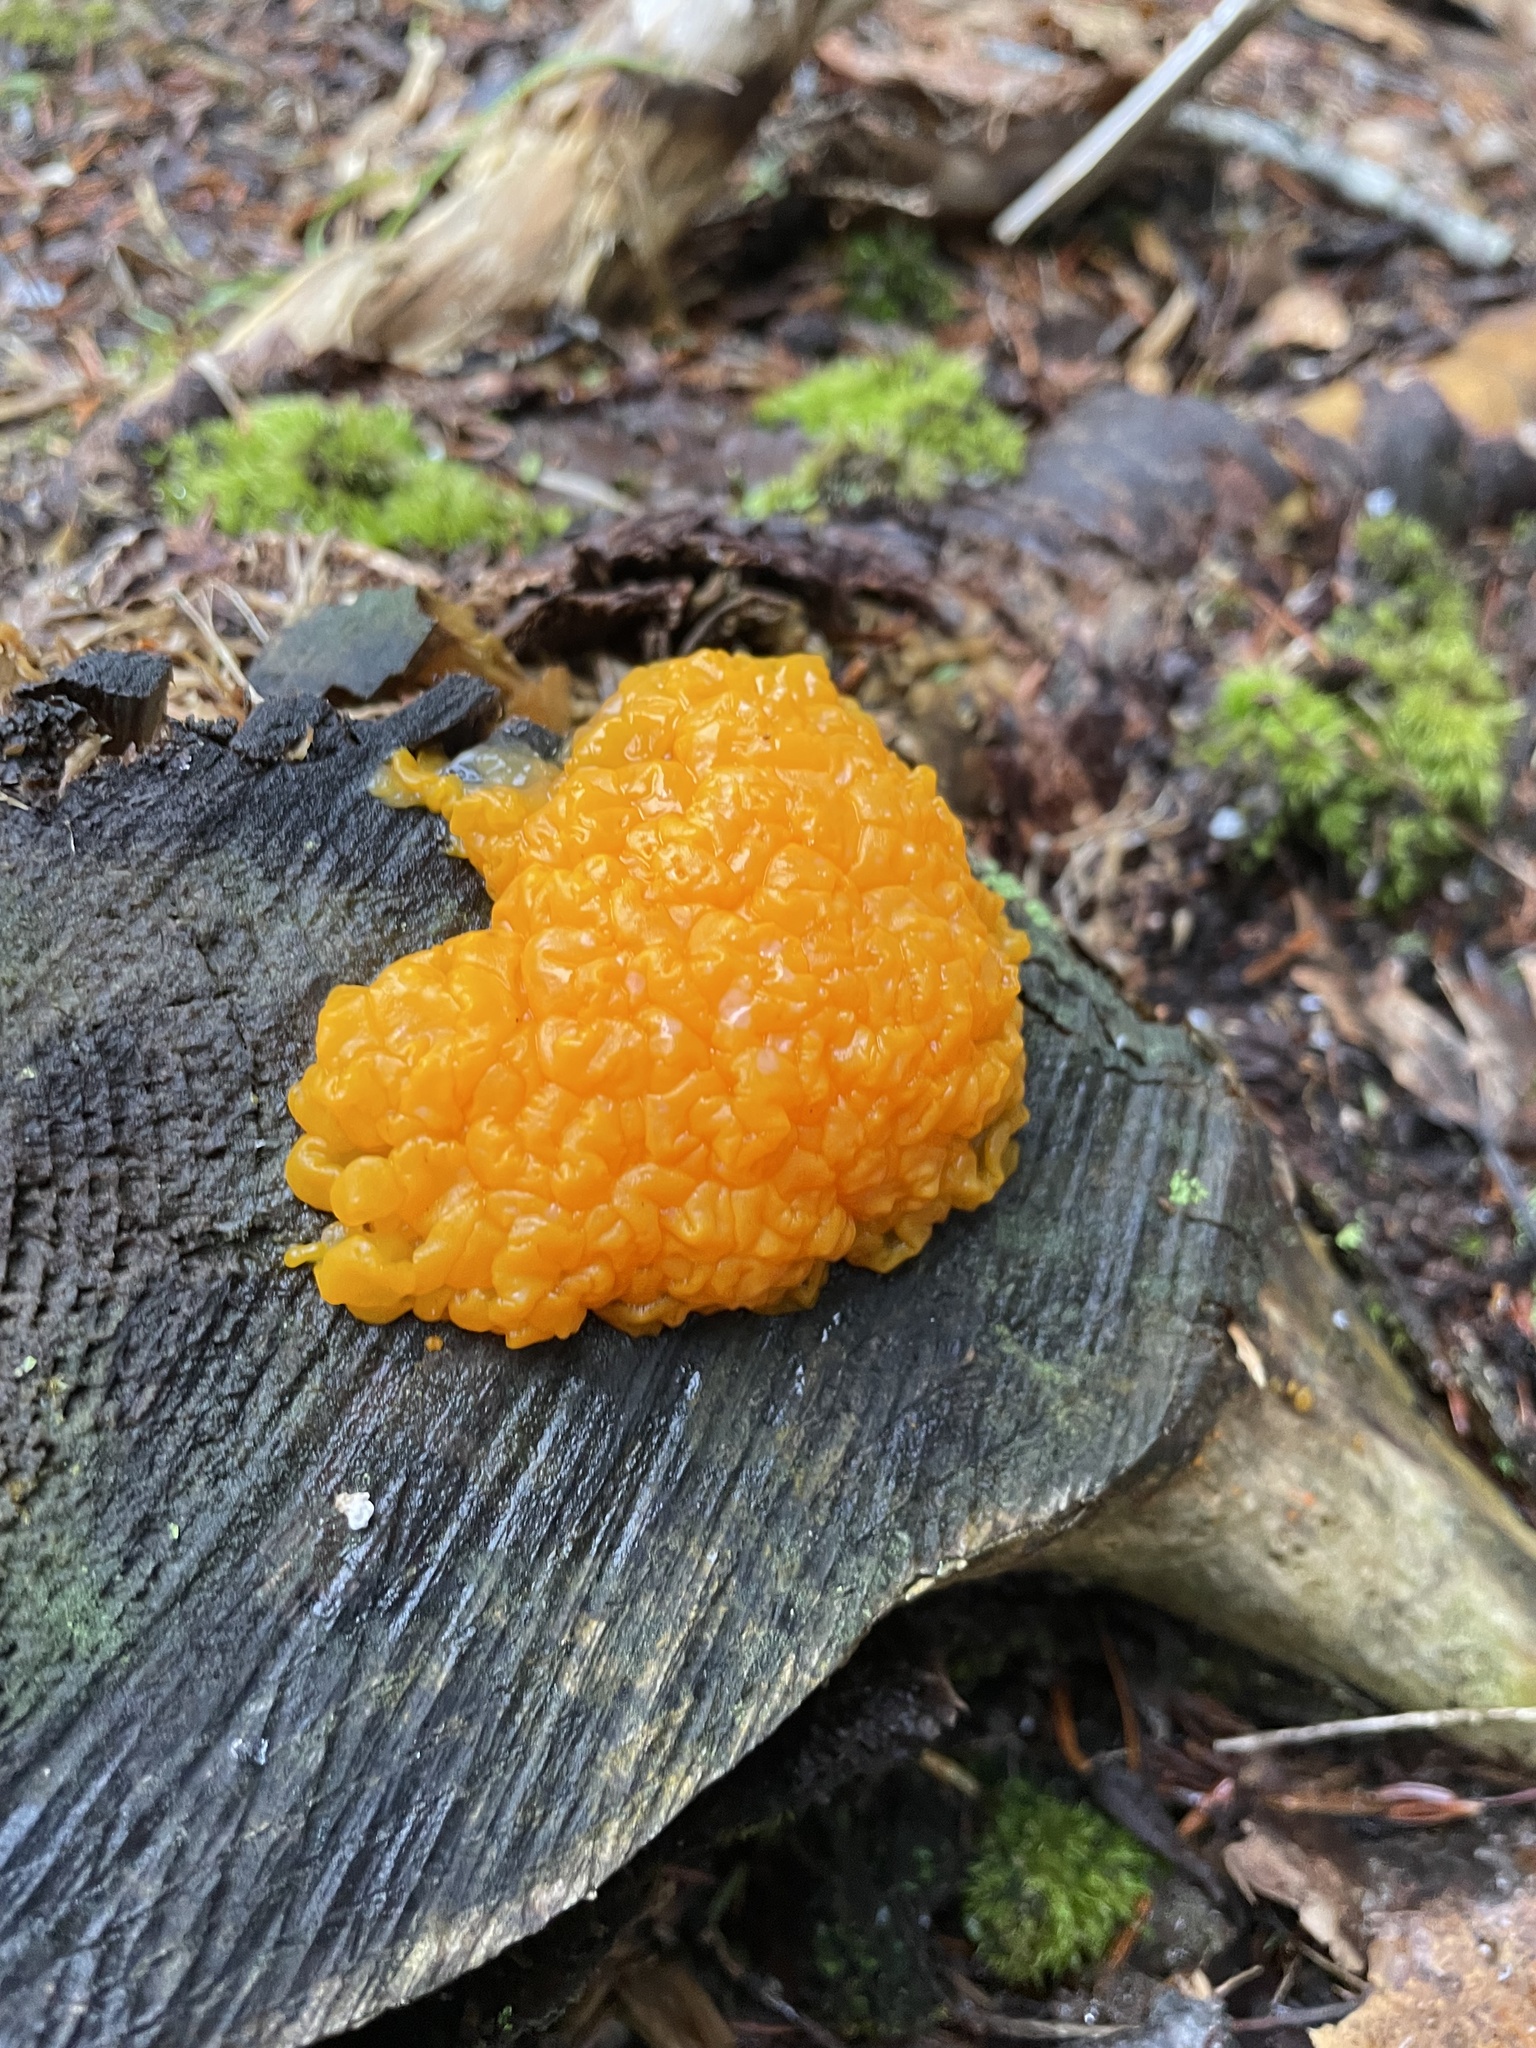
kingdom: Fungi
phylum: Basidiomycota
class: Dacrymycetes
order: Dacrymycetales
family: Dacrymycetaceae
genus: Dacrymyces
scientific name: Dacrymyces chrysospermus
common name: Orange jelly spot
